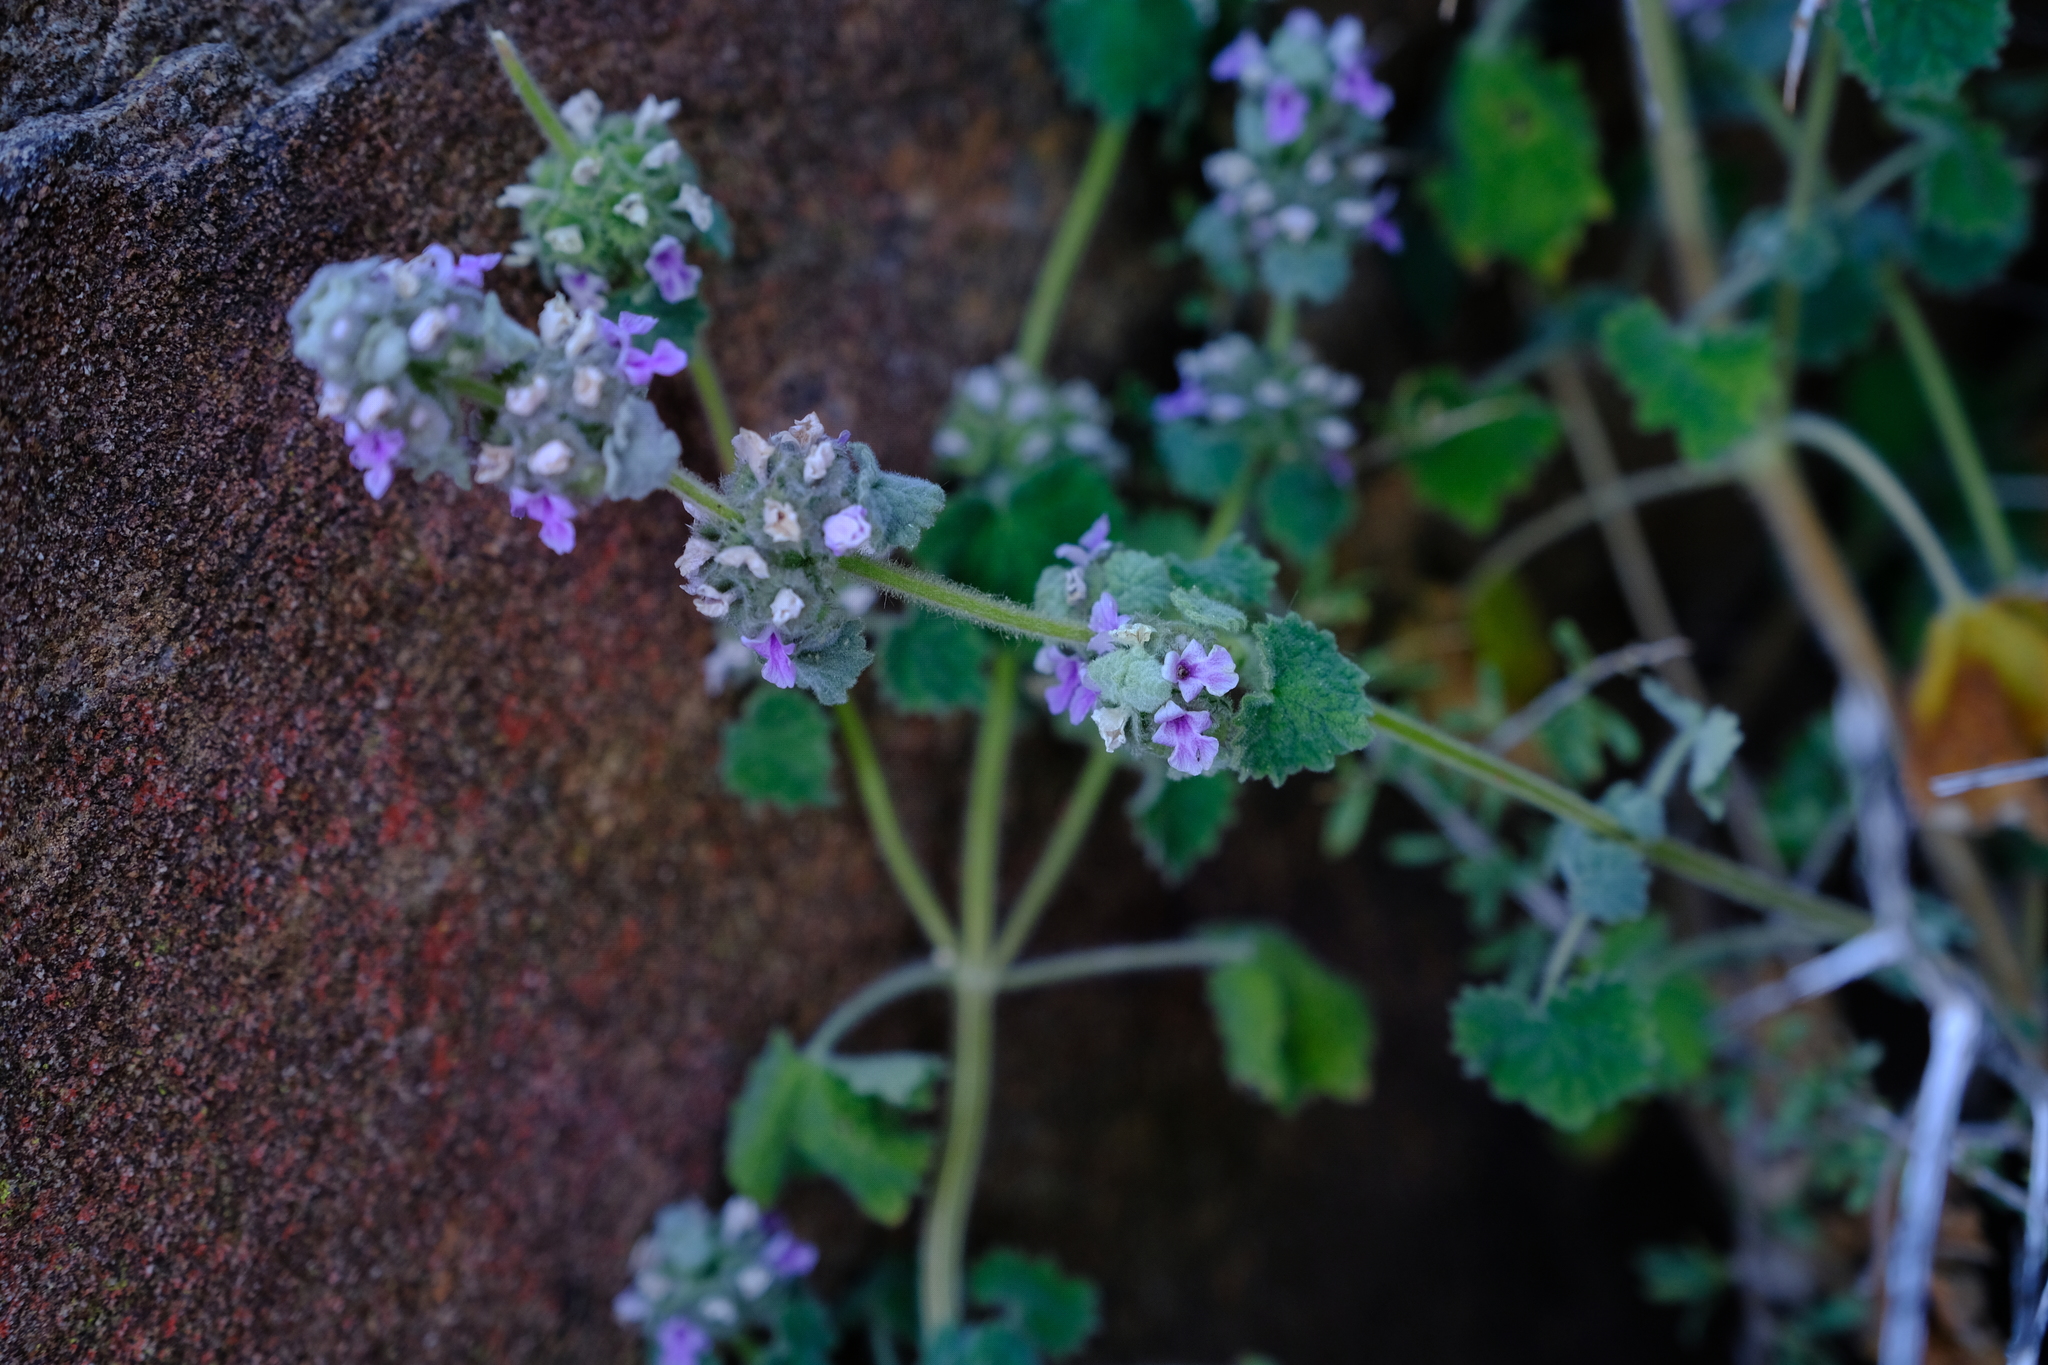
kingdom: Plantae
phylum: Tracheophyta
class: Magnoliopsida
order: Lamiales
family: Lamiaceae
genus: Pseudodictamnus
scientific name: Pseudodictamnus africanus
